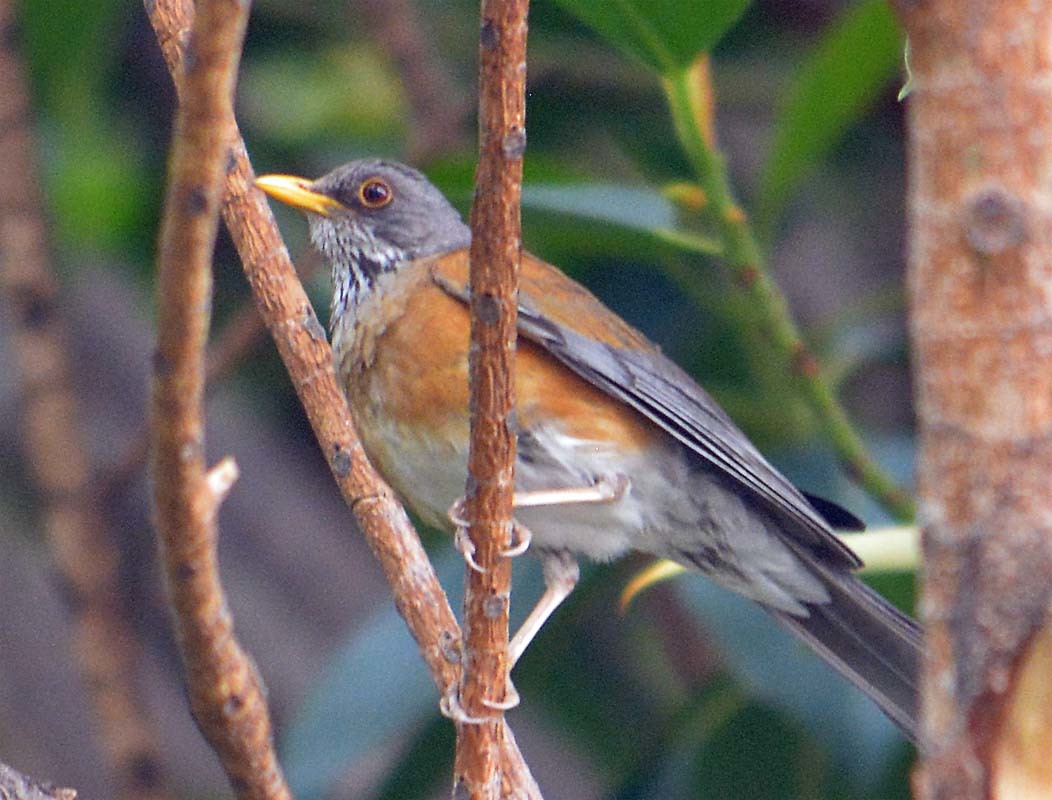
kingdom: Animalia
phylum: Chordata
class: Aves
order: Passeriformes
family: Turdidae
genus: Turdus
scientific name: Turdus rufopalliatus
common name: Rufous-backed robin
